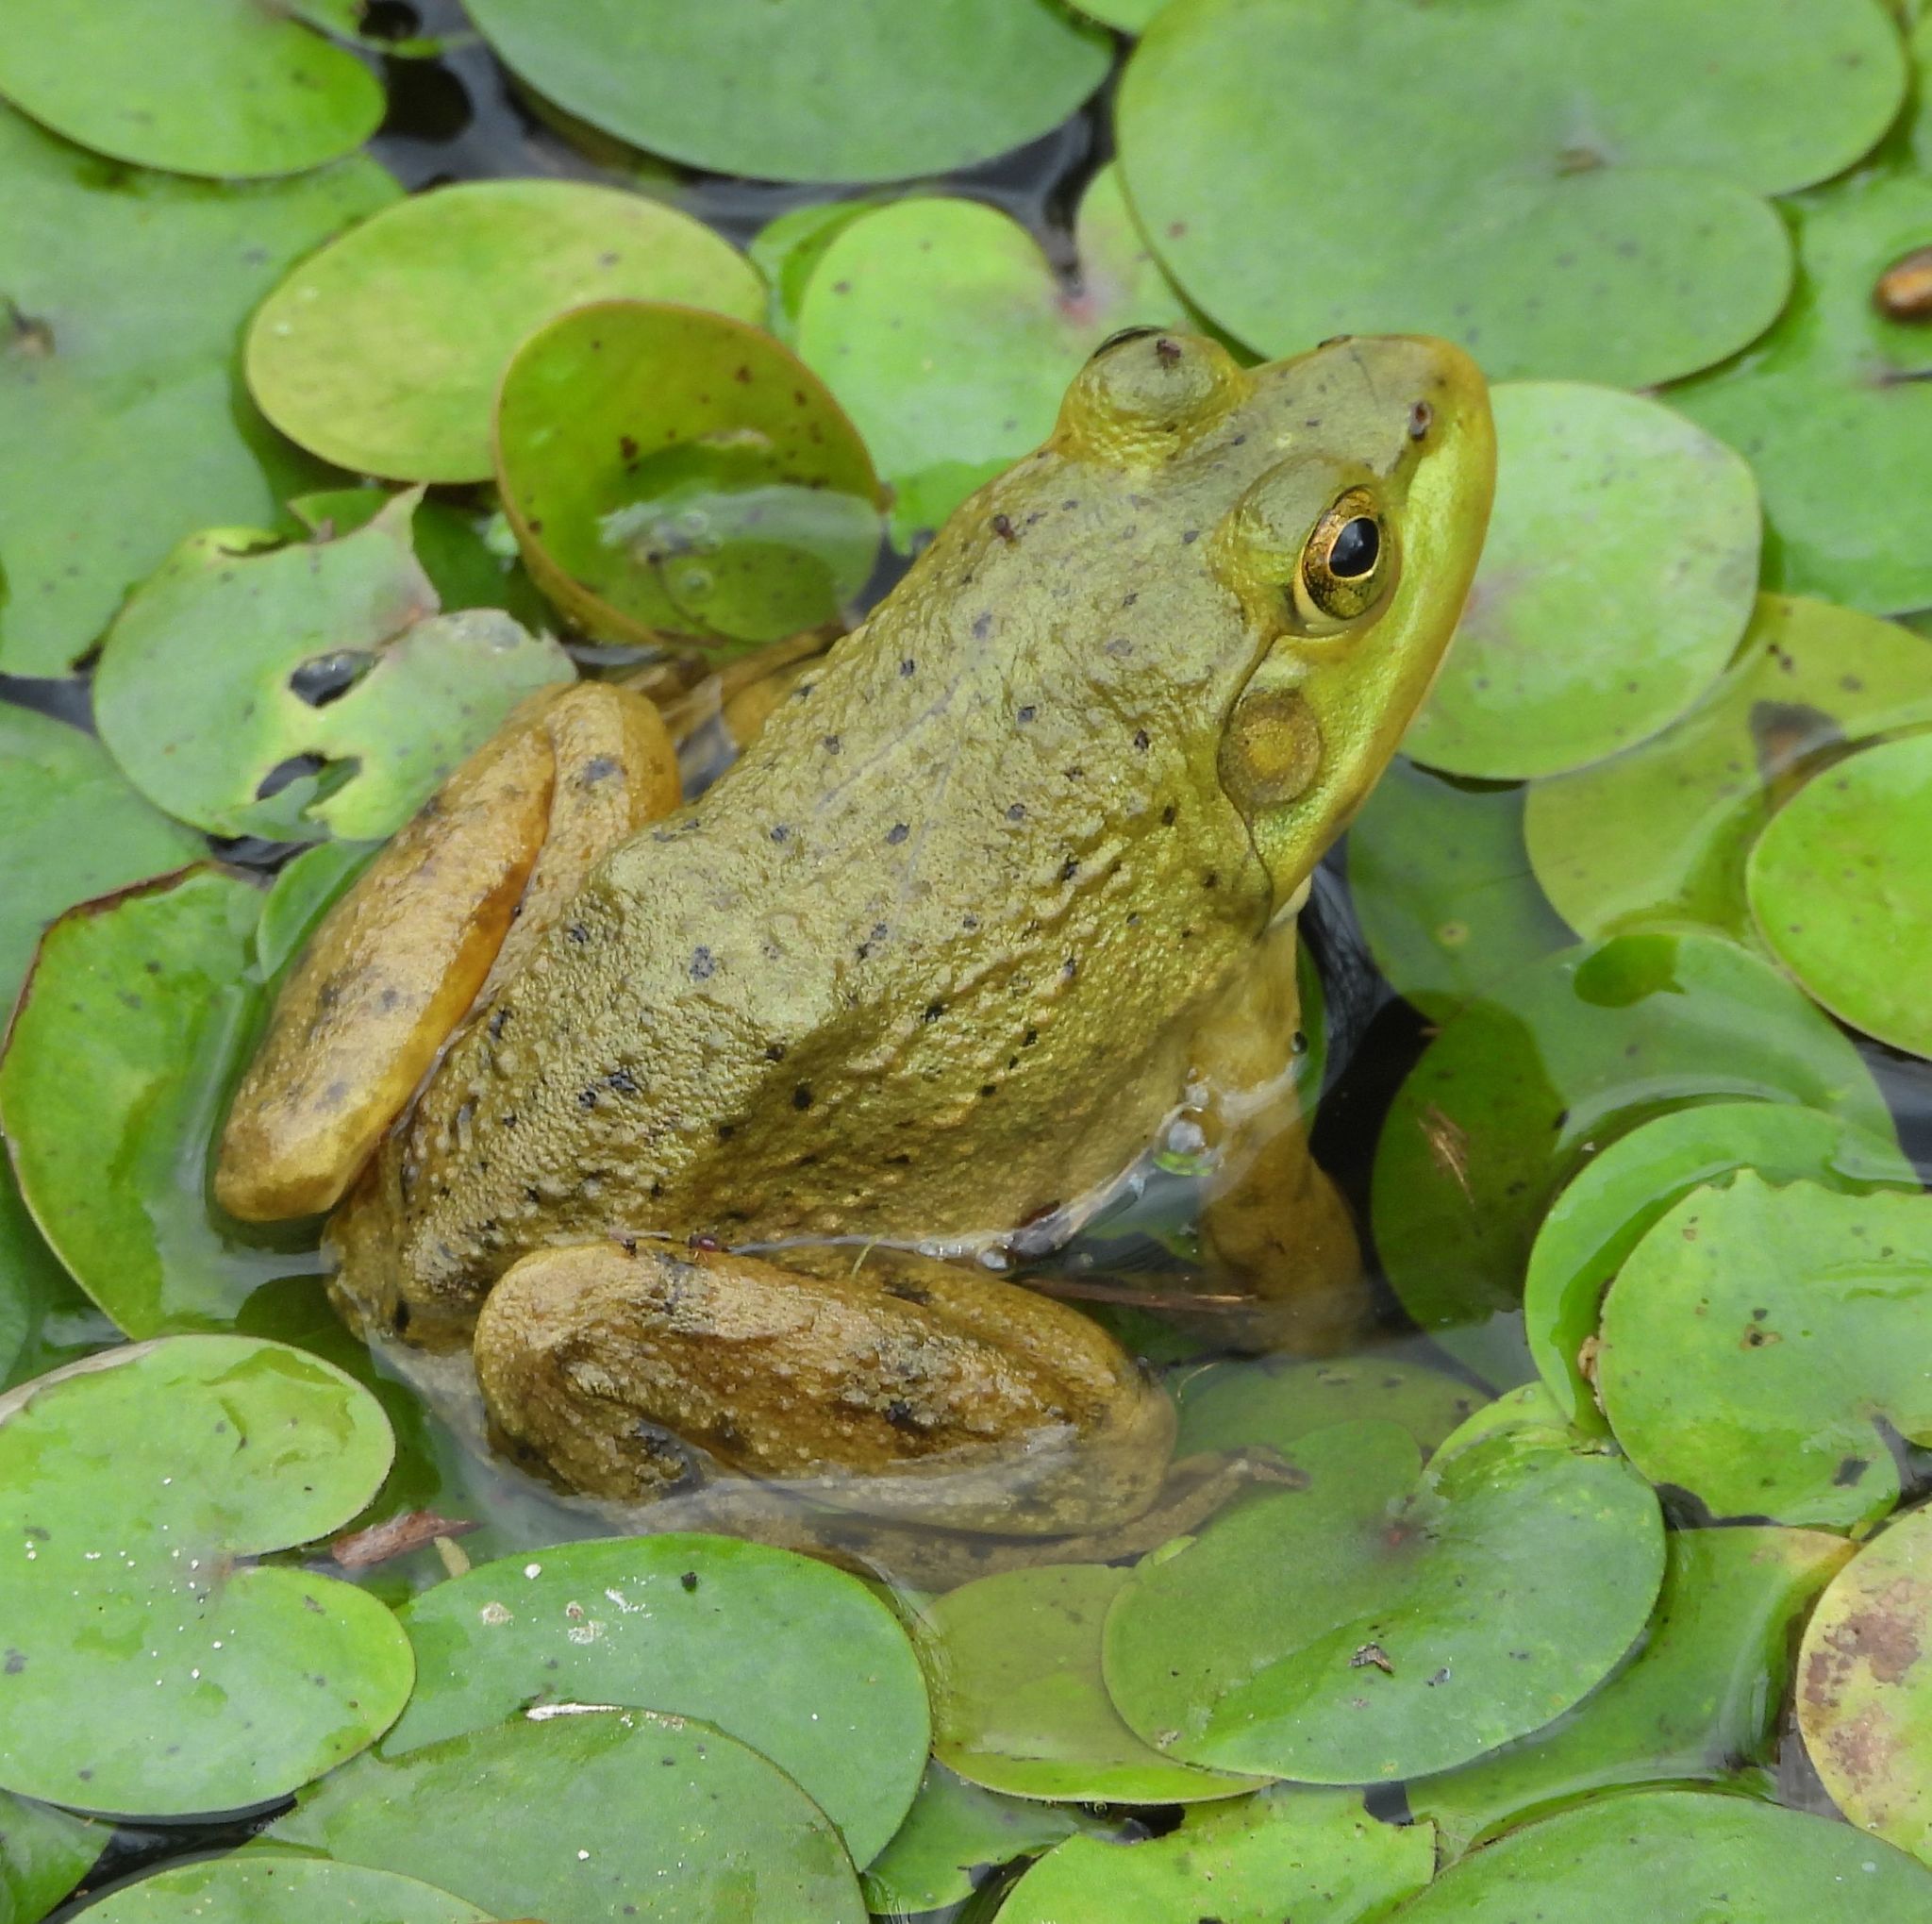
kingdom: Animalia
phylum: Chordata
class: Amphibia
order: Anura
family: Ranidae
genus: Lithobates
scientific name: Lithobates catesbeianus
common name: American bullfrog
